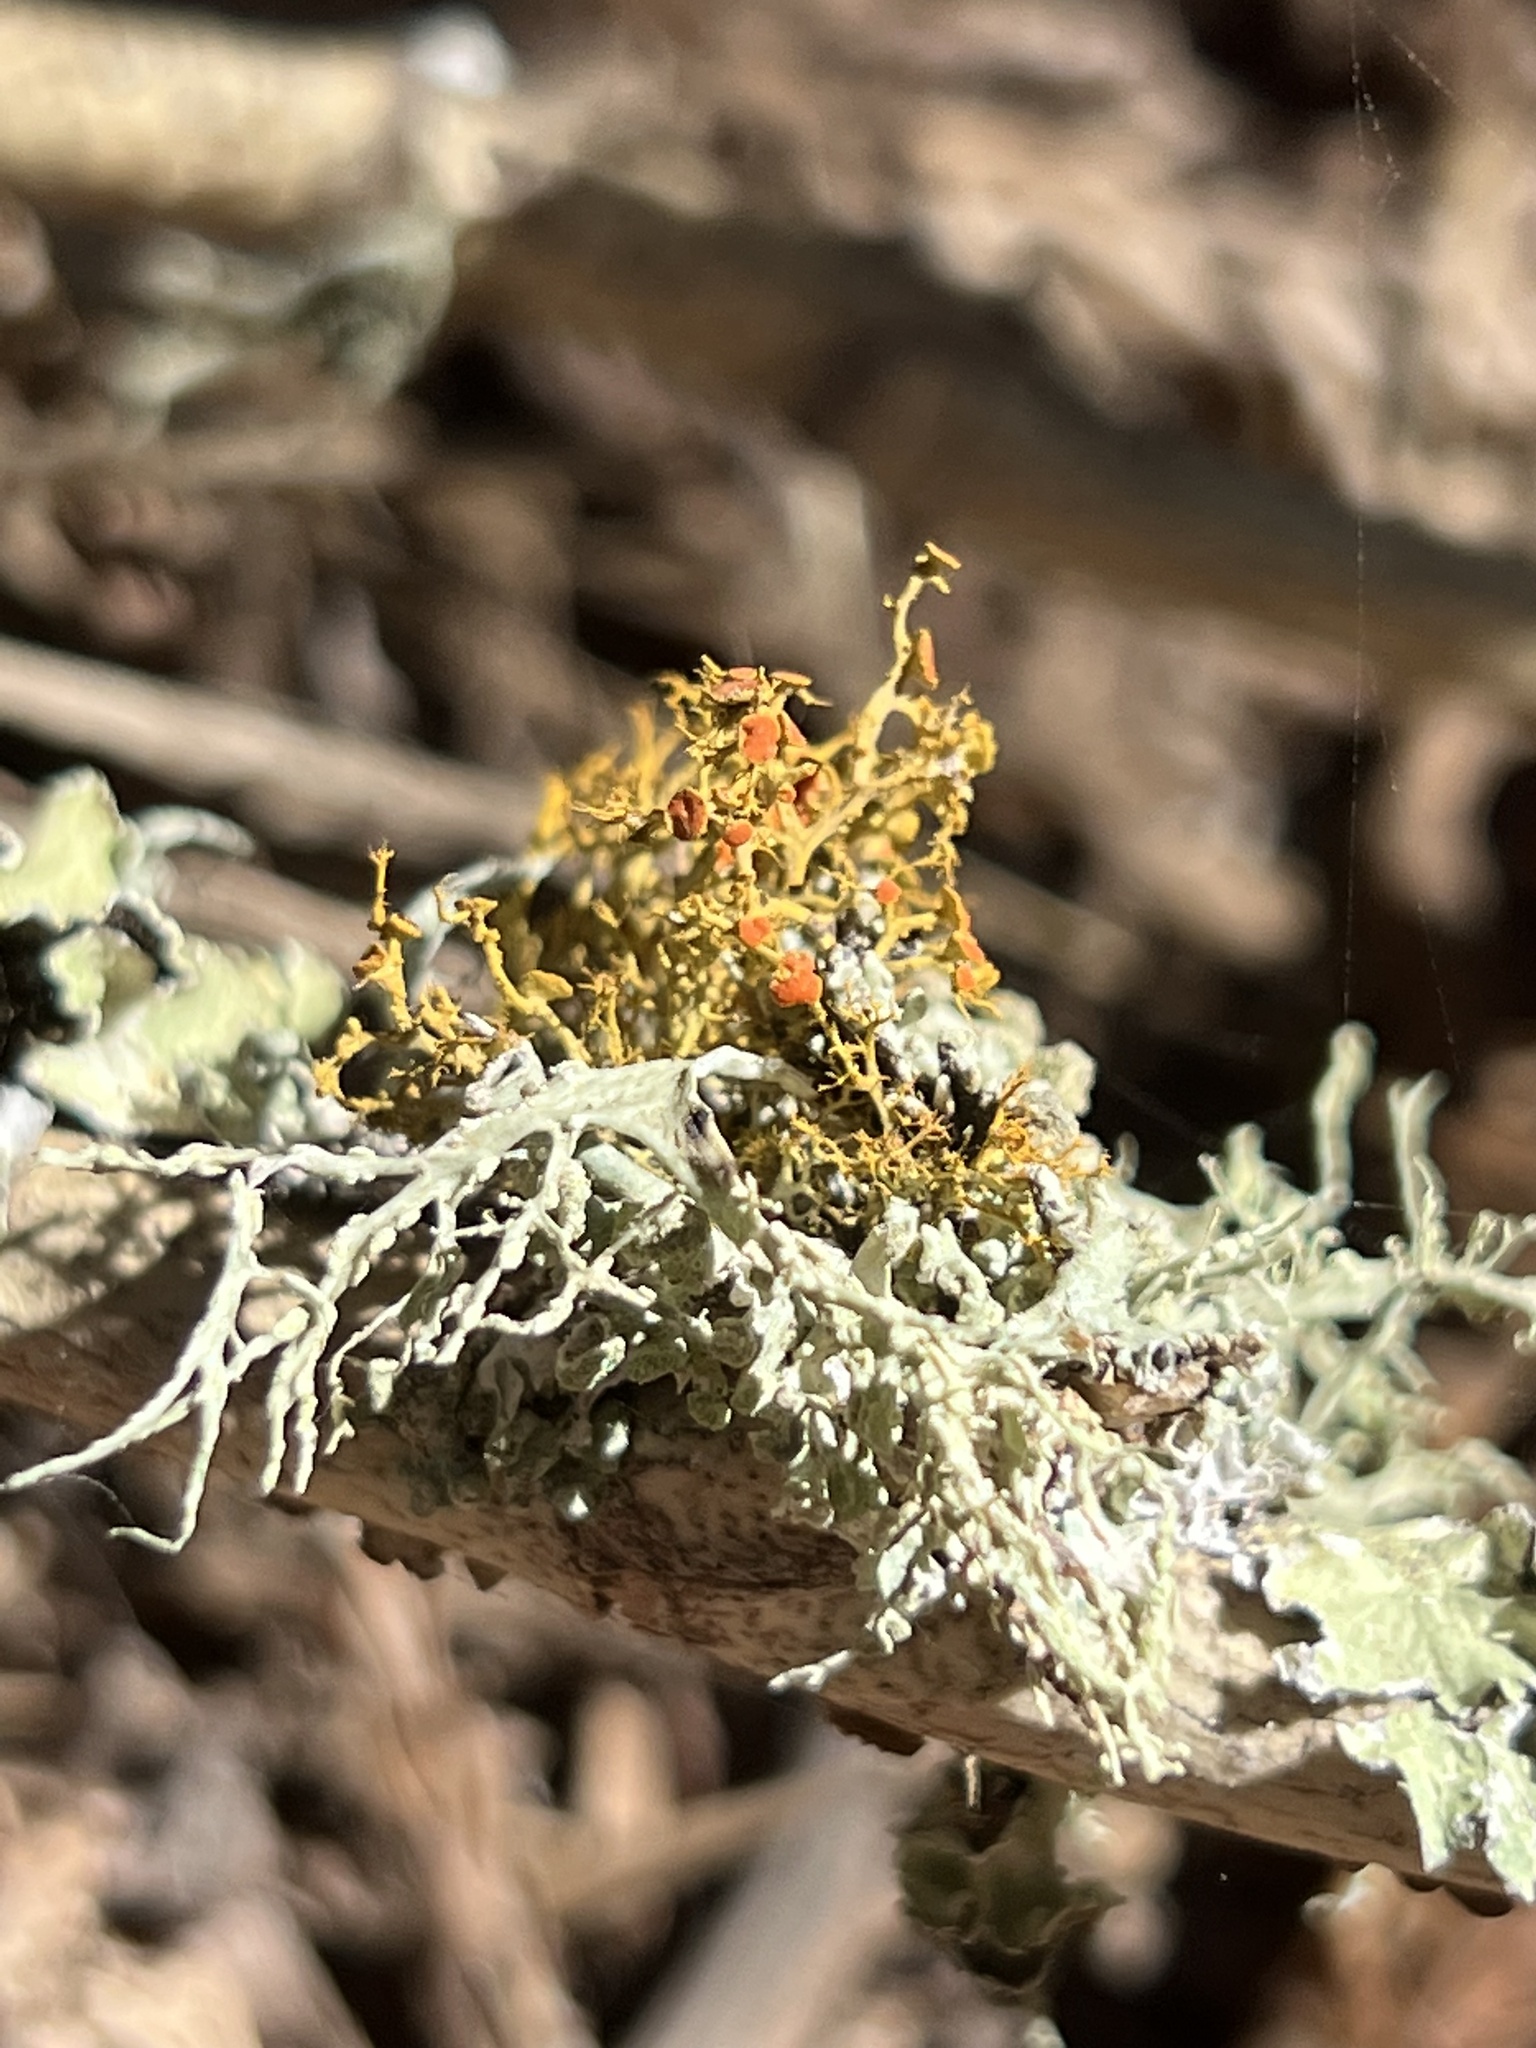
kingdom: Fungi
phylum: Ascomycota
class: Lecanoromycetes
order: Teloschistales
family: Teloschistaceae
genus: Teloschistes
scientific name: Teloschistes flavicans
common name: Golden hair-lichen
